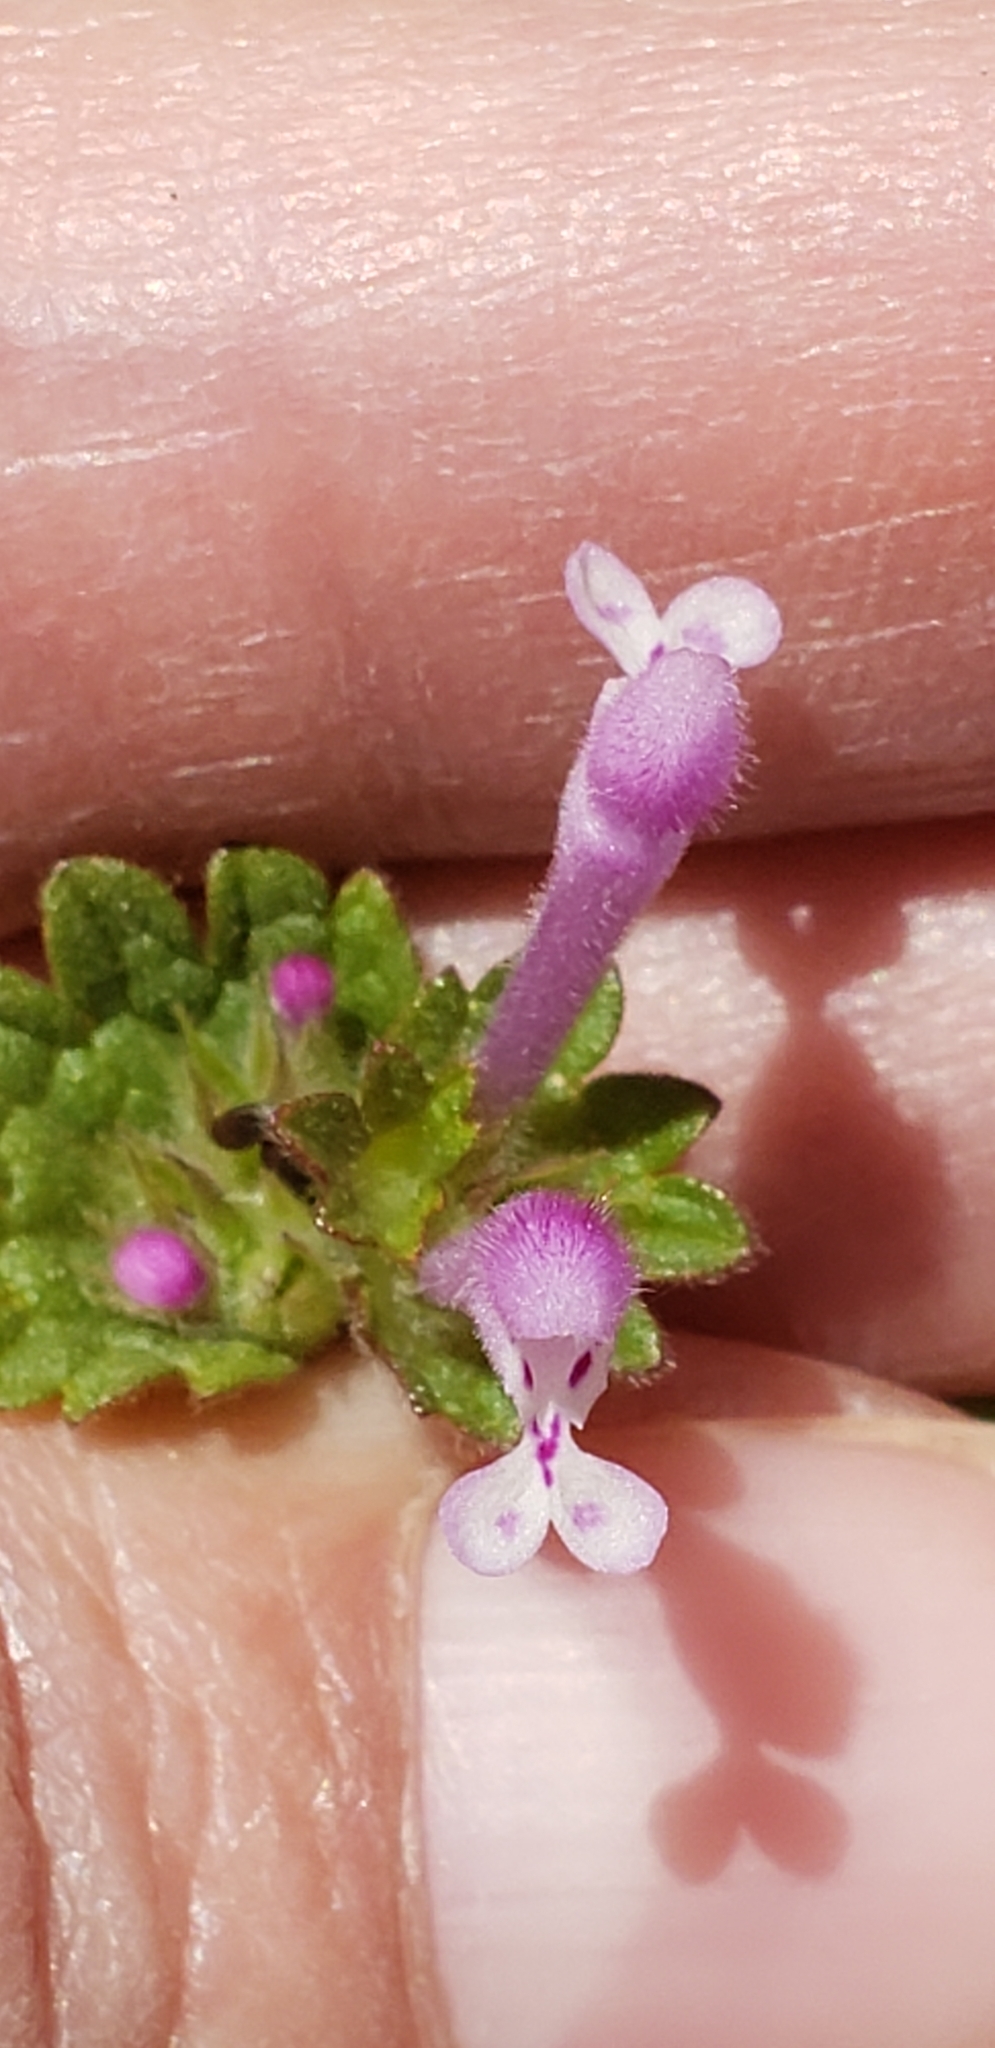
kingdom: Plantae
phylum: Tracheophyta
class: Magnoliopsida
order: Lamiales
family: Lamiaceae
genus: Lamium
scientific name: Lamium amplexicaule
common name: Henbit dead-nettle
